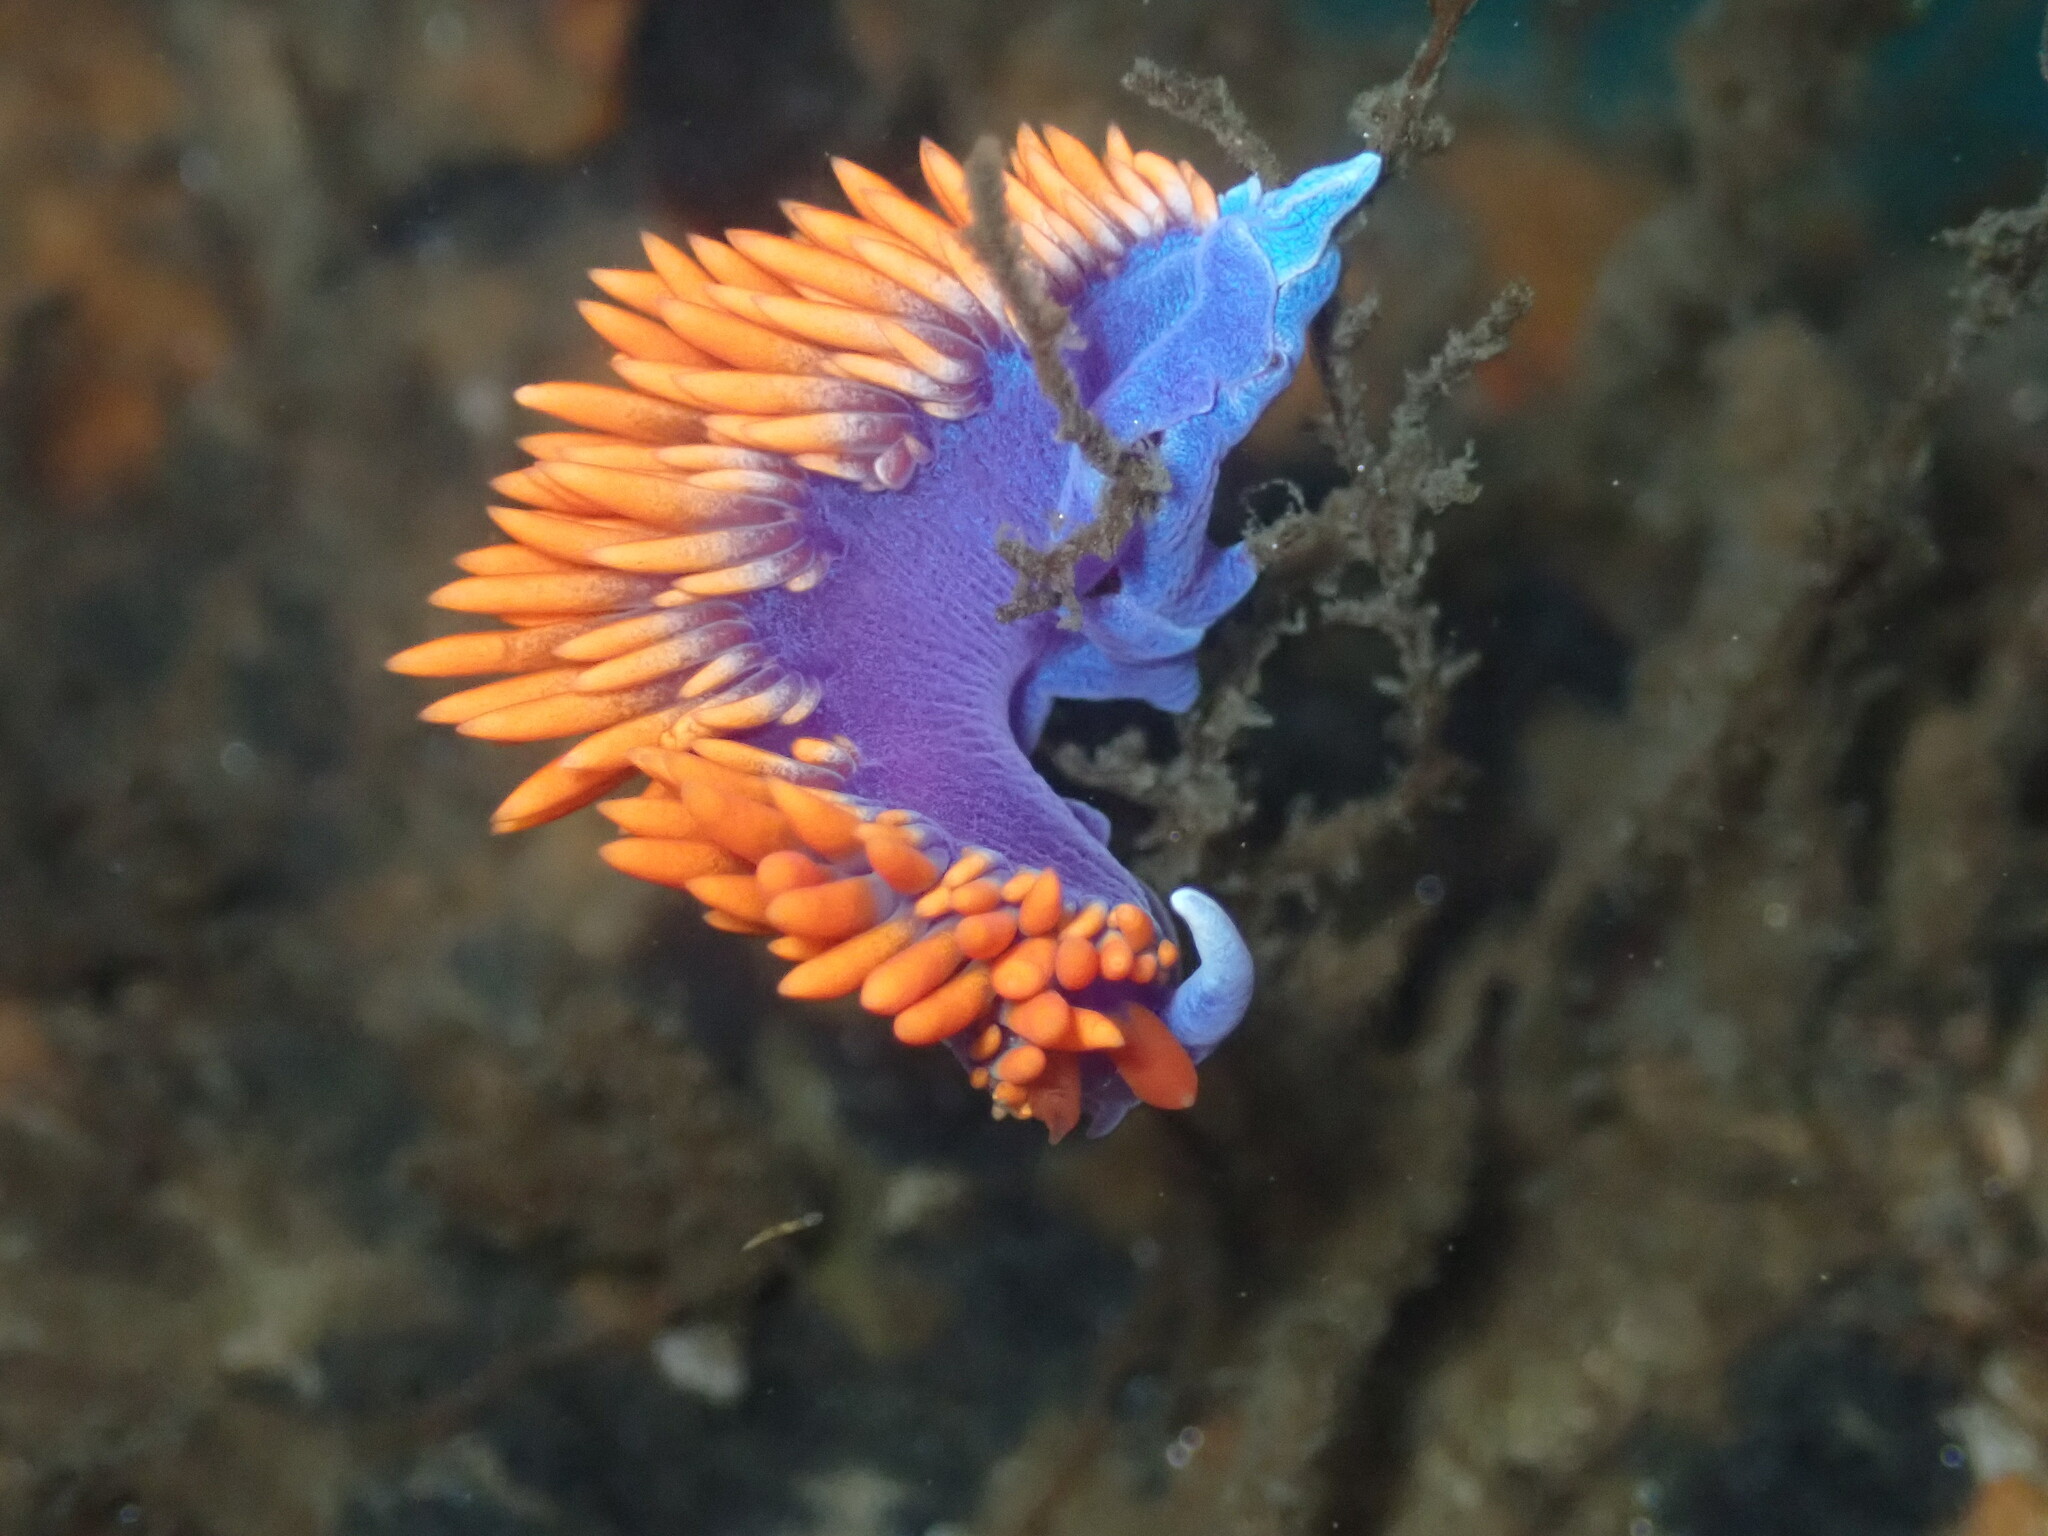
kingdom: Animalia
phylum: Mollusca
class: Gastropoda
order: Nudibranchia
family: Flabellinopsidae
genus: Flabellinopsis
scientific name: Flabellinopsis iodinea
